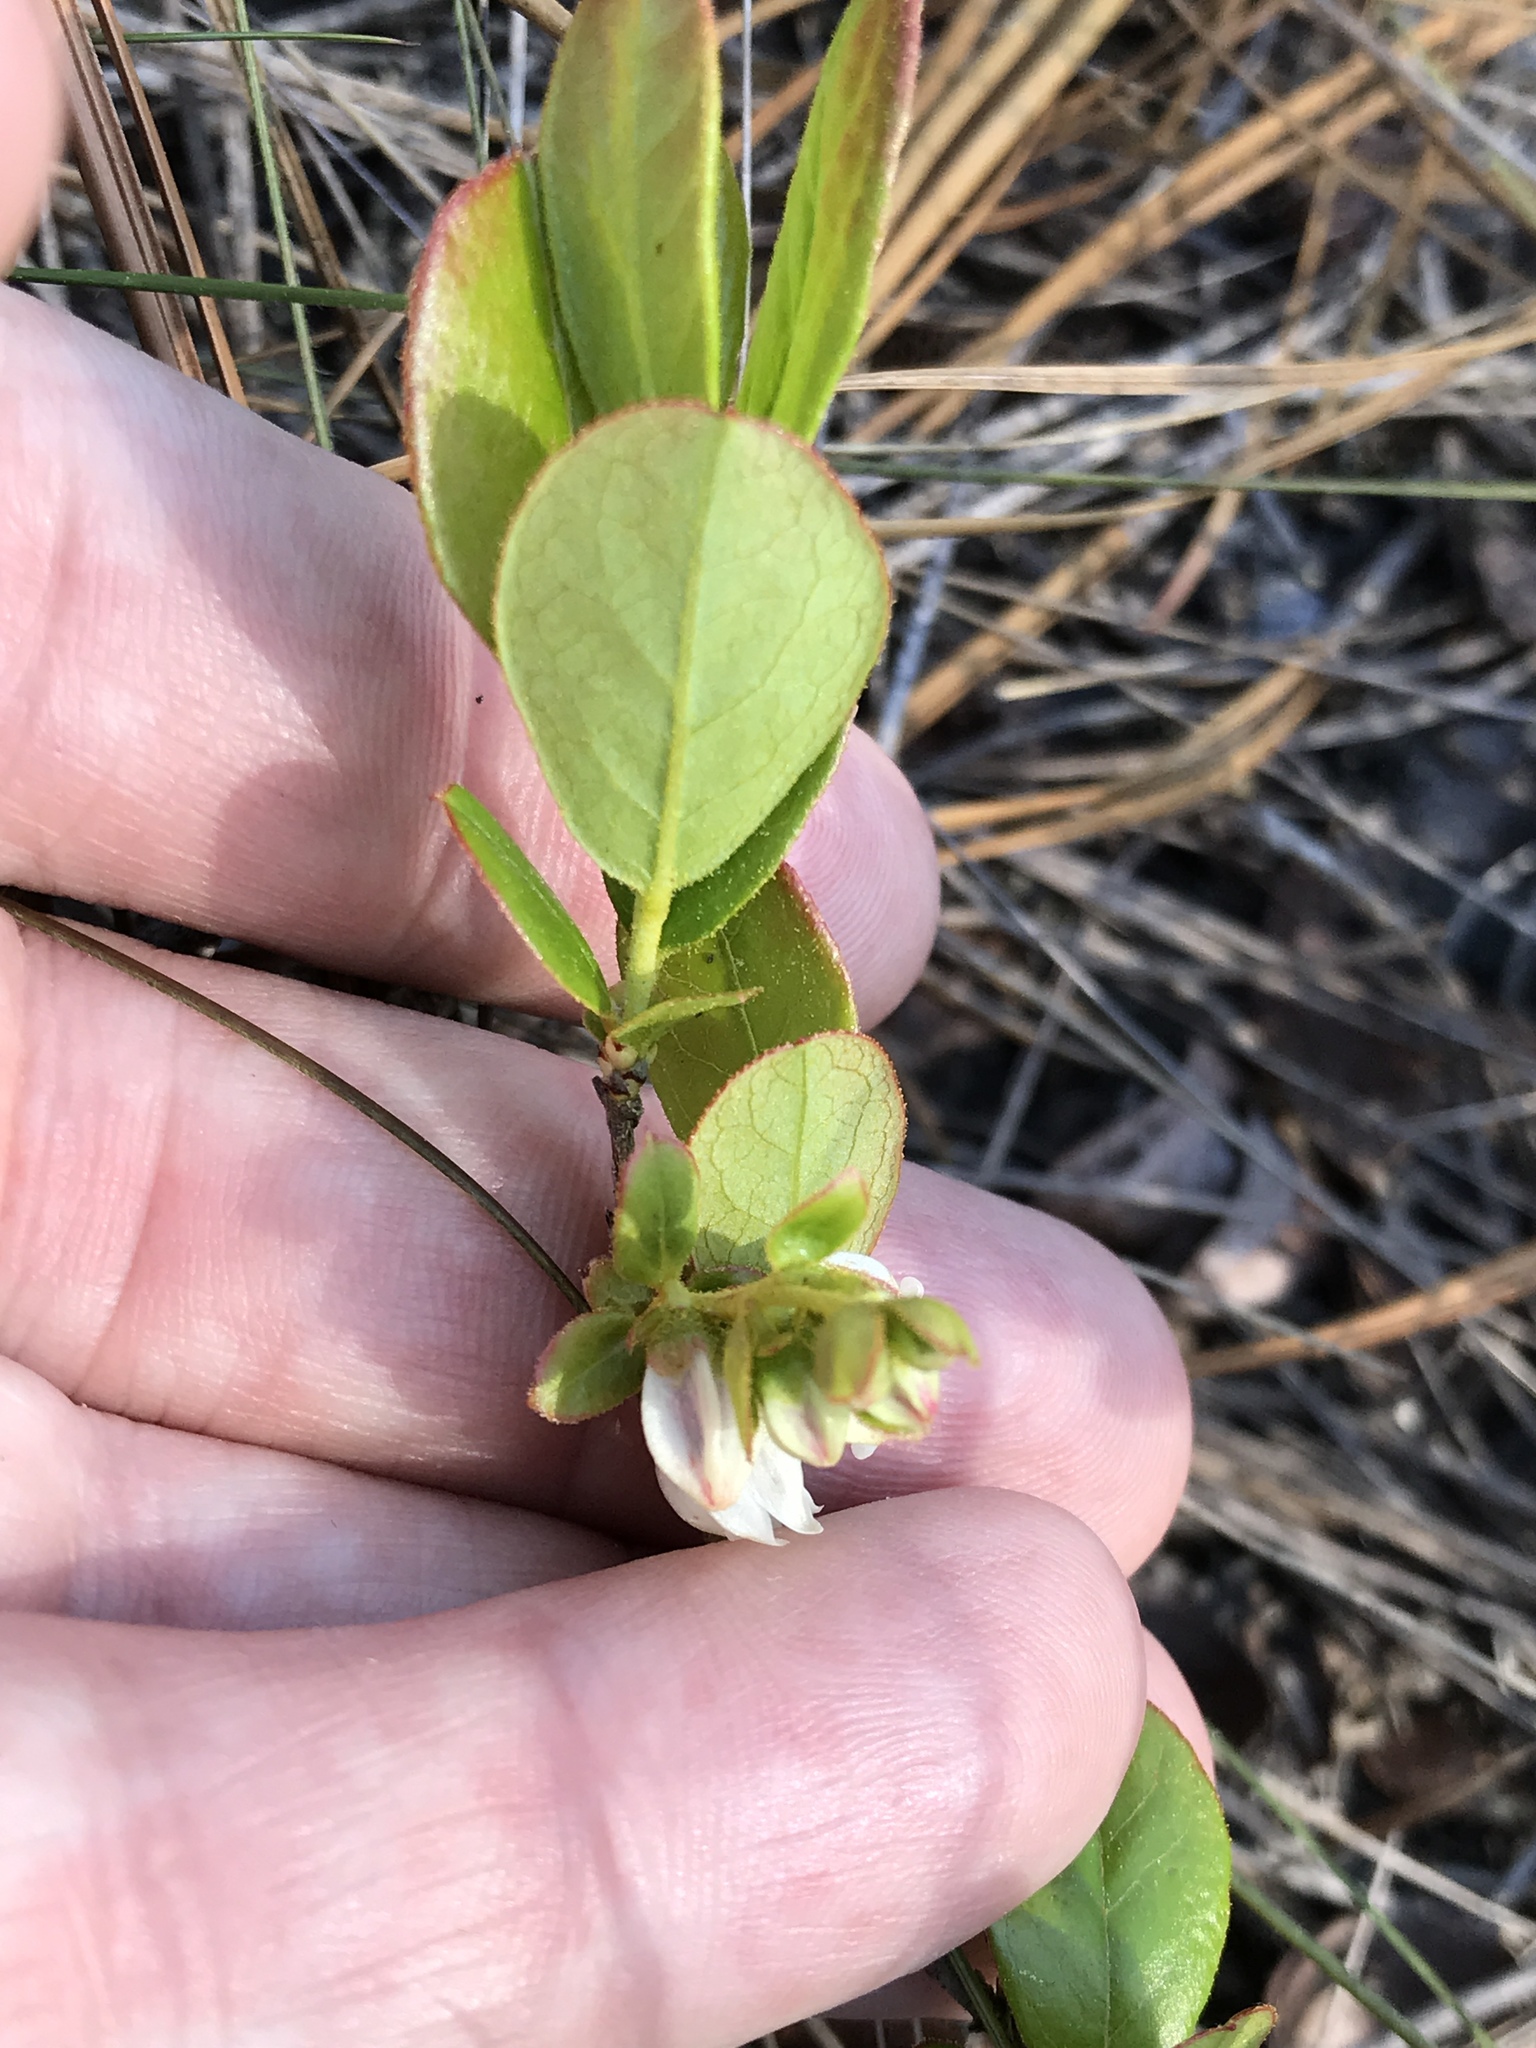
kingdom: Plantae
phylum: Tracheophyta
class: Magnoliopsida
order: Ericales
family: Ericaceae
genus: Gaylussacia
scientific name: Gaylussacia dumosa
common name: Dwarf huckleberry
